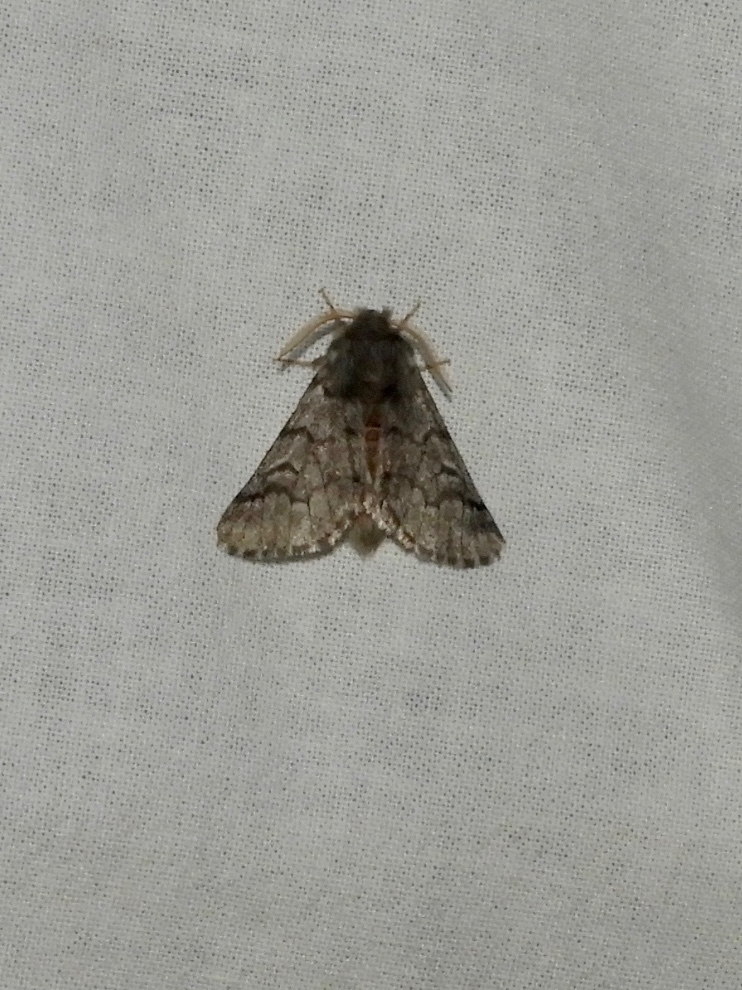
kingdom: Animalia
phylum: Arthropoda
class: Insecta
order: Lepidoptera
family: Notodontidae
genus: Thaumetopoea
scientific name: Thaumetopoea pityocampa
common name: Pine processionary
